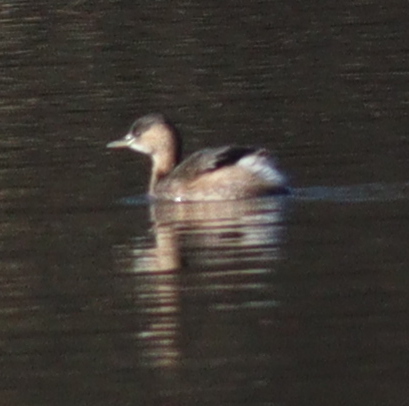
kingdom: Animalia
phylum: Chordata
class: Aves
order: Podicipediformes
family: Podicipedidae
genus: Tachybaptus
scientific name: Tachybaptus ruficollis
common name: Little grebe
